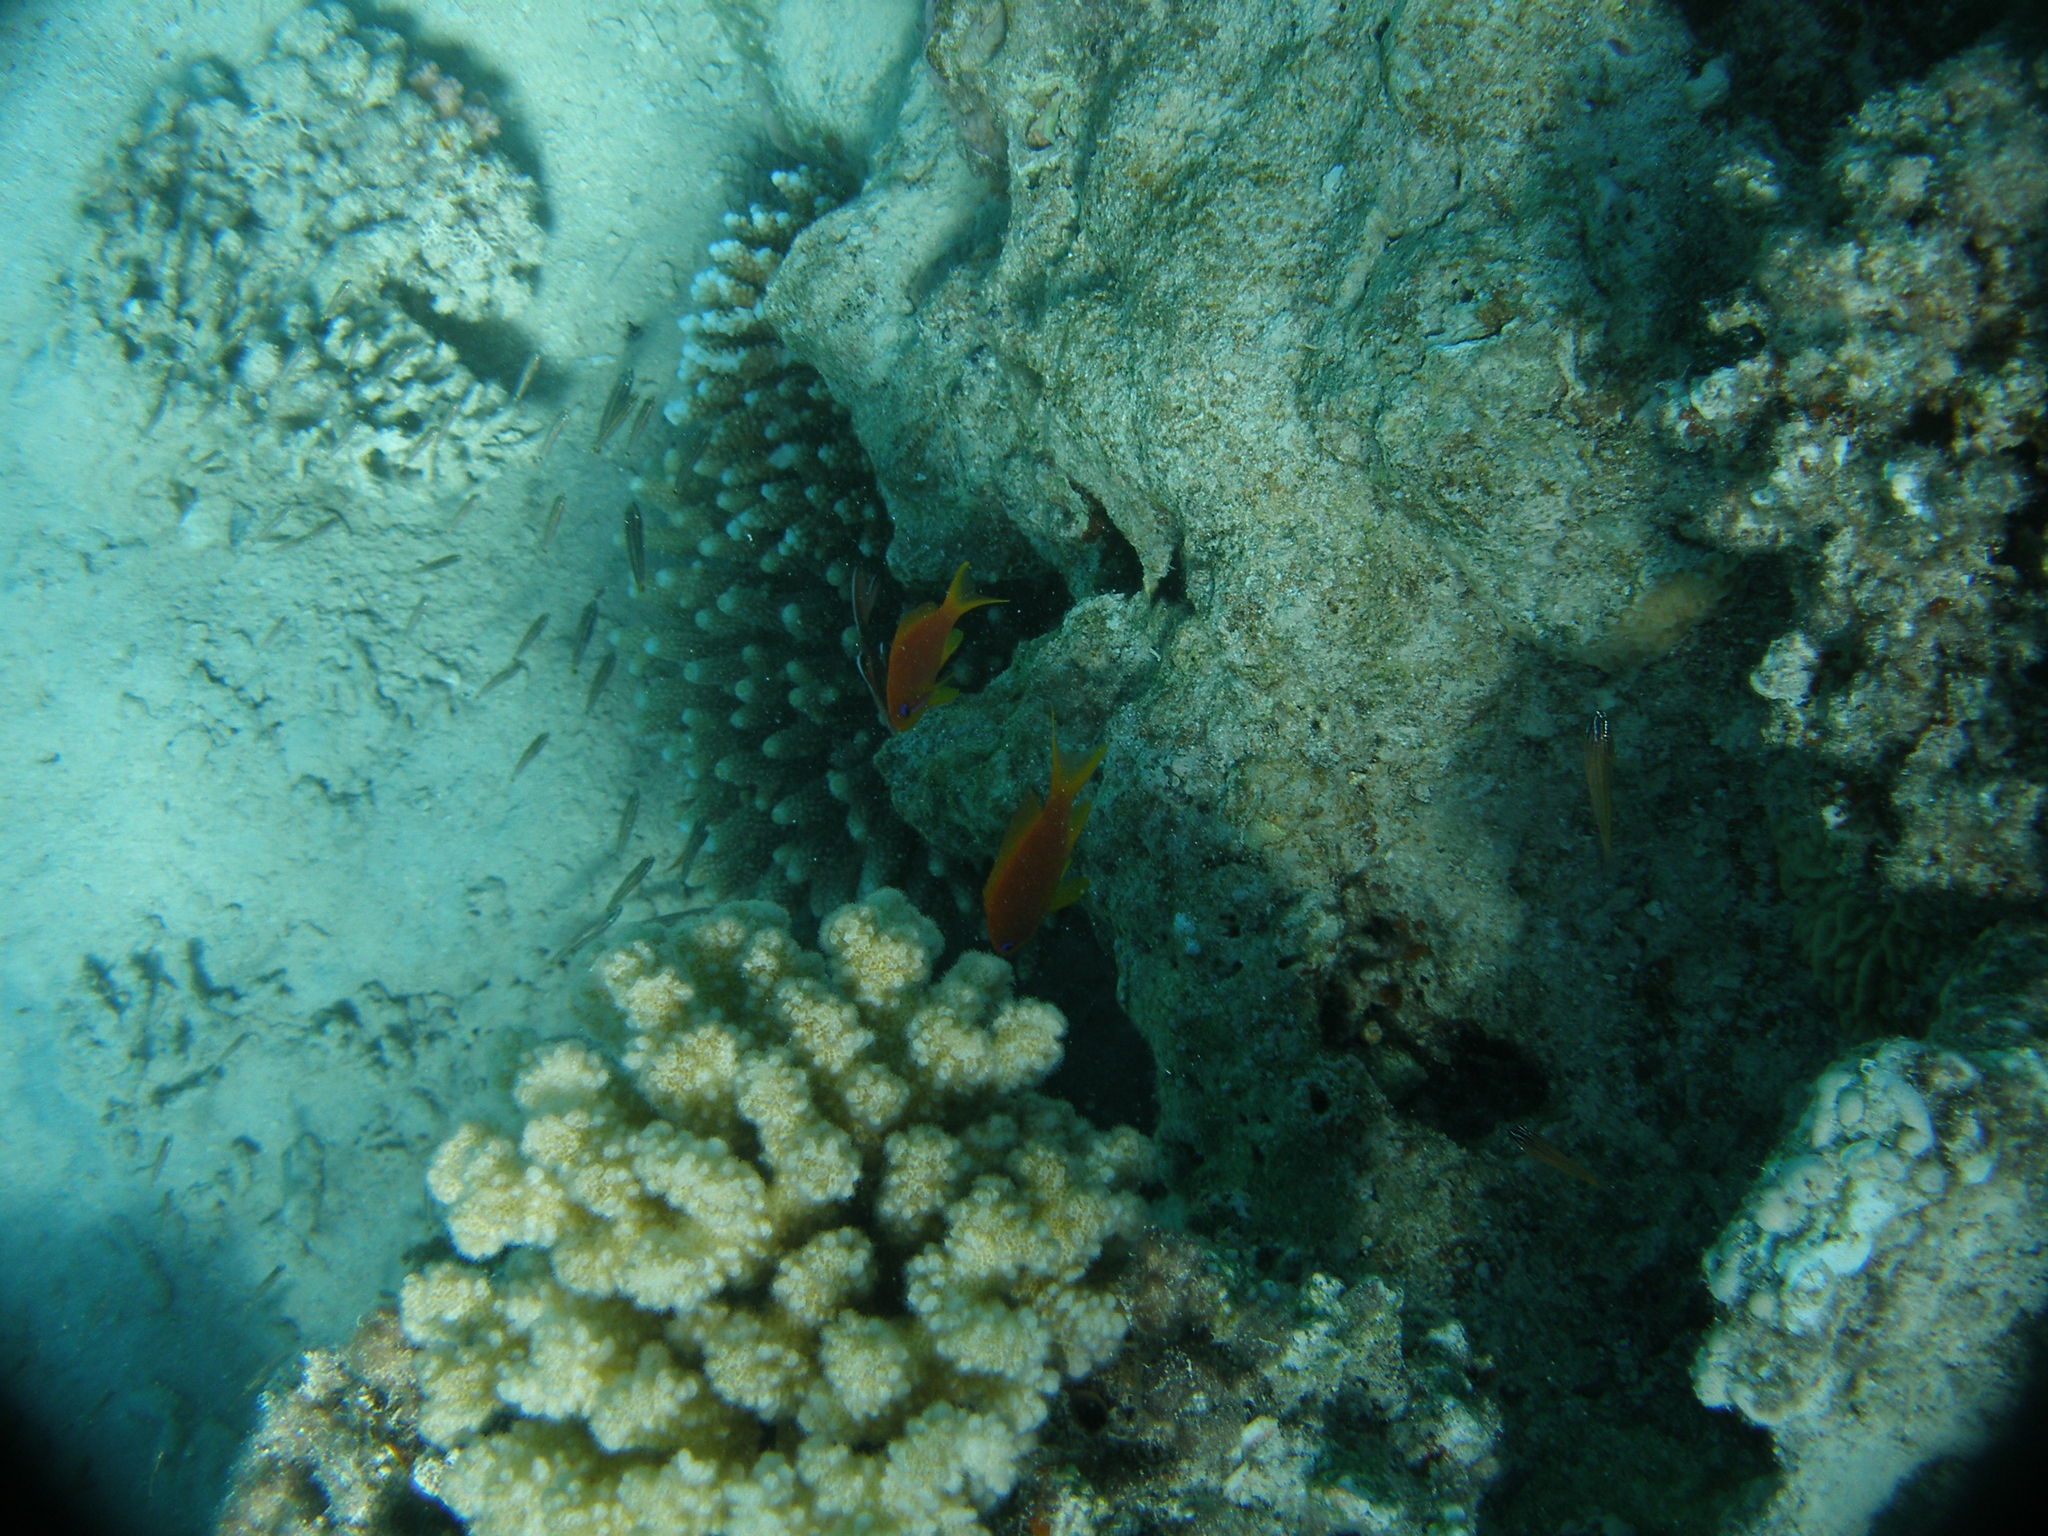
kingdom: Animalia
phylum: Chordata
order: Perciformes
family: Serranidae
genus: Pseudanthias
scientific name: Pseudanthias squamipinnis
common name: Scalefin anthias
